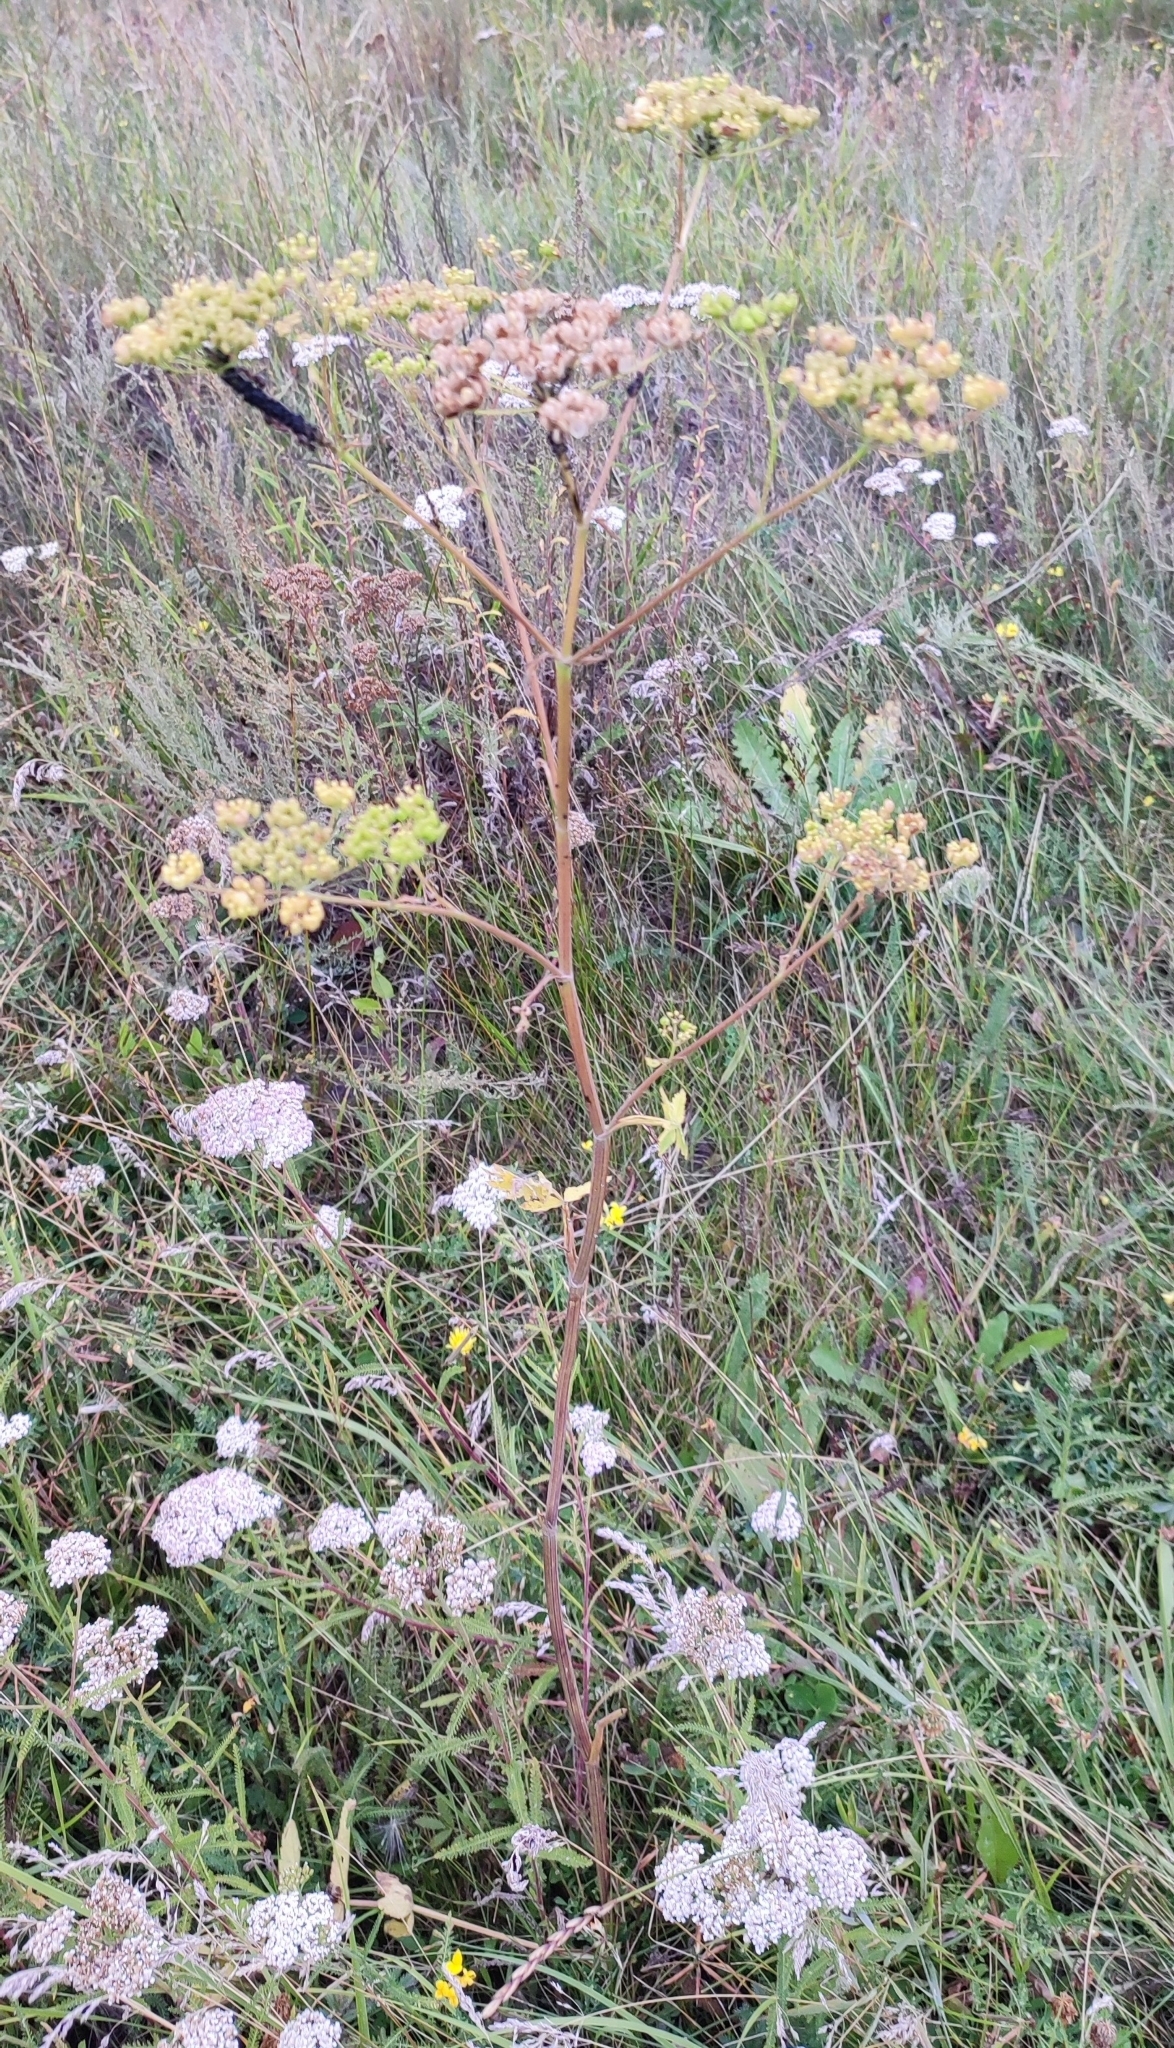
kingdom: Plantae
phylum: Tracheophyta
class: Magnoliopsida
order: Apiales
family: Apiaceae
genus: Pastinaca
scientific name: Pastinaca sativa
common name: Wild parsnip
